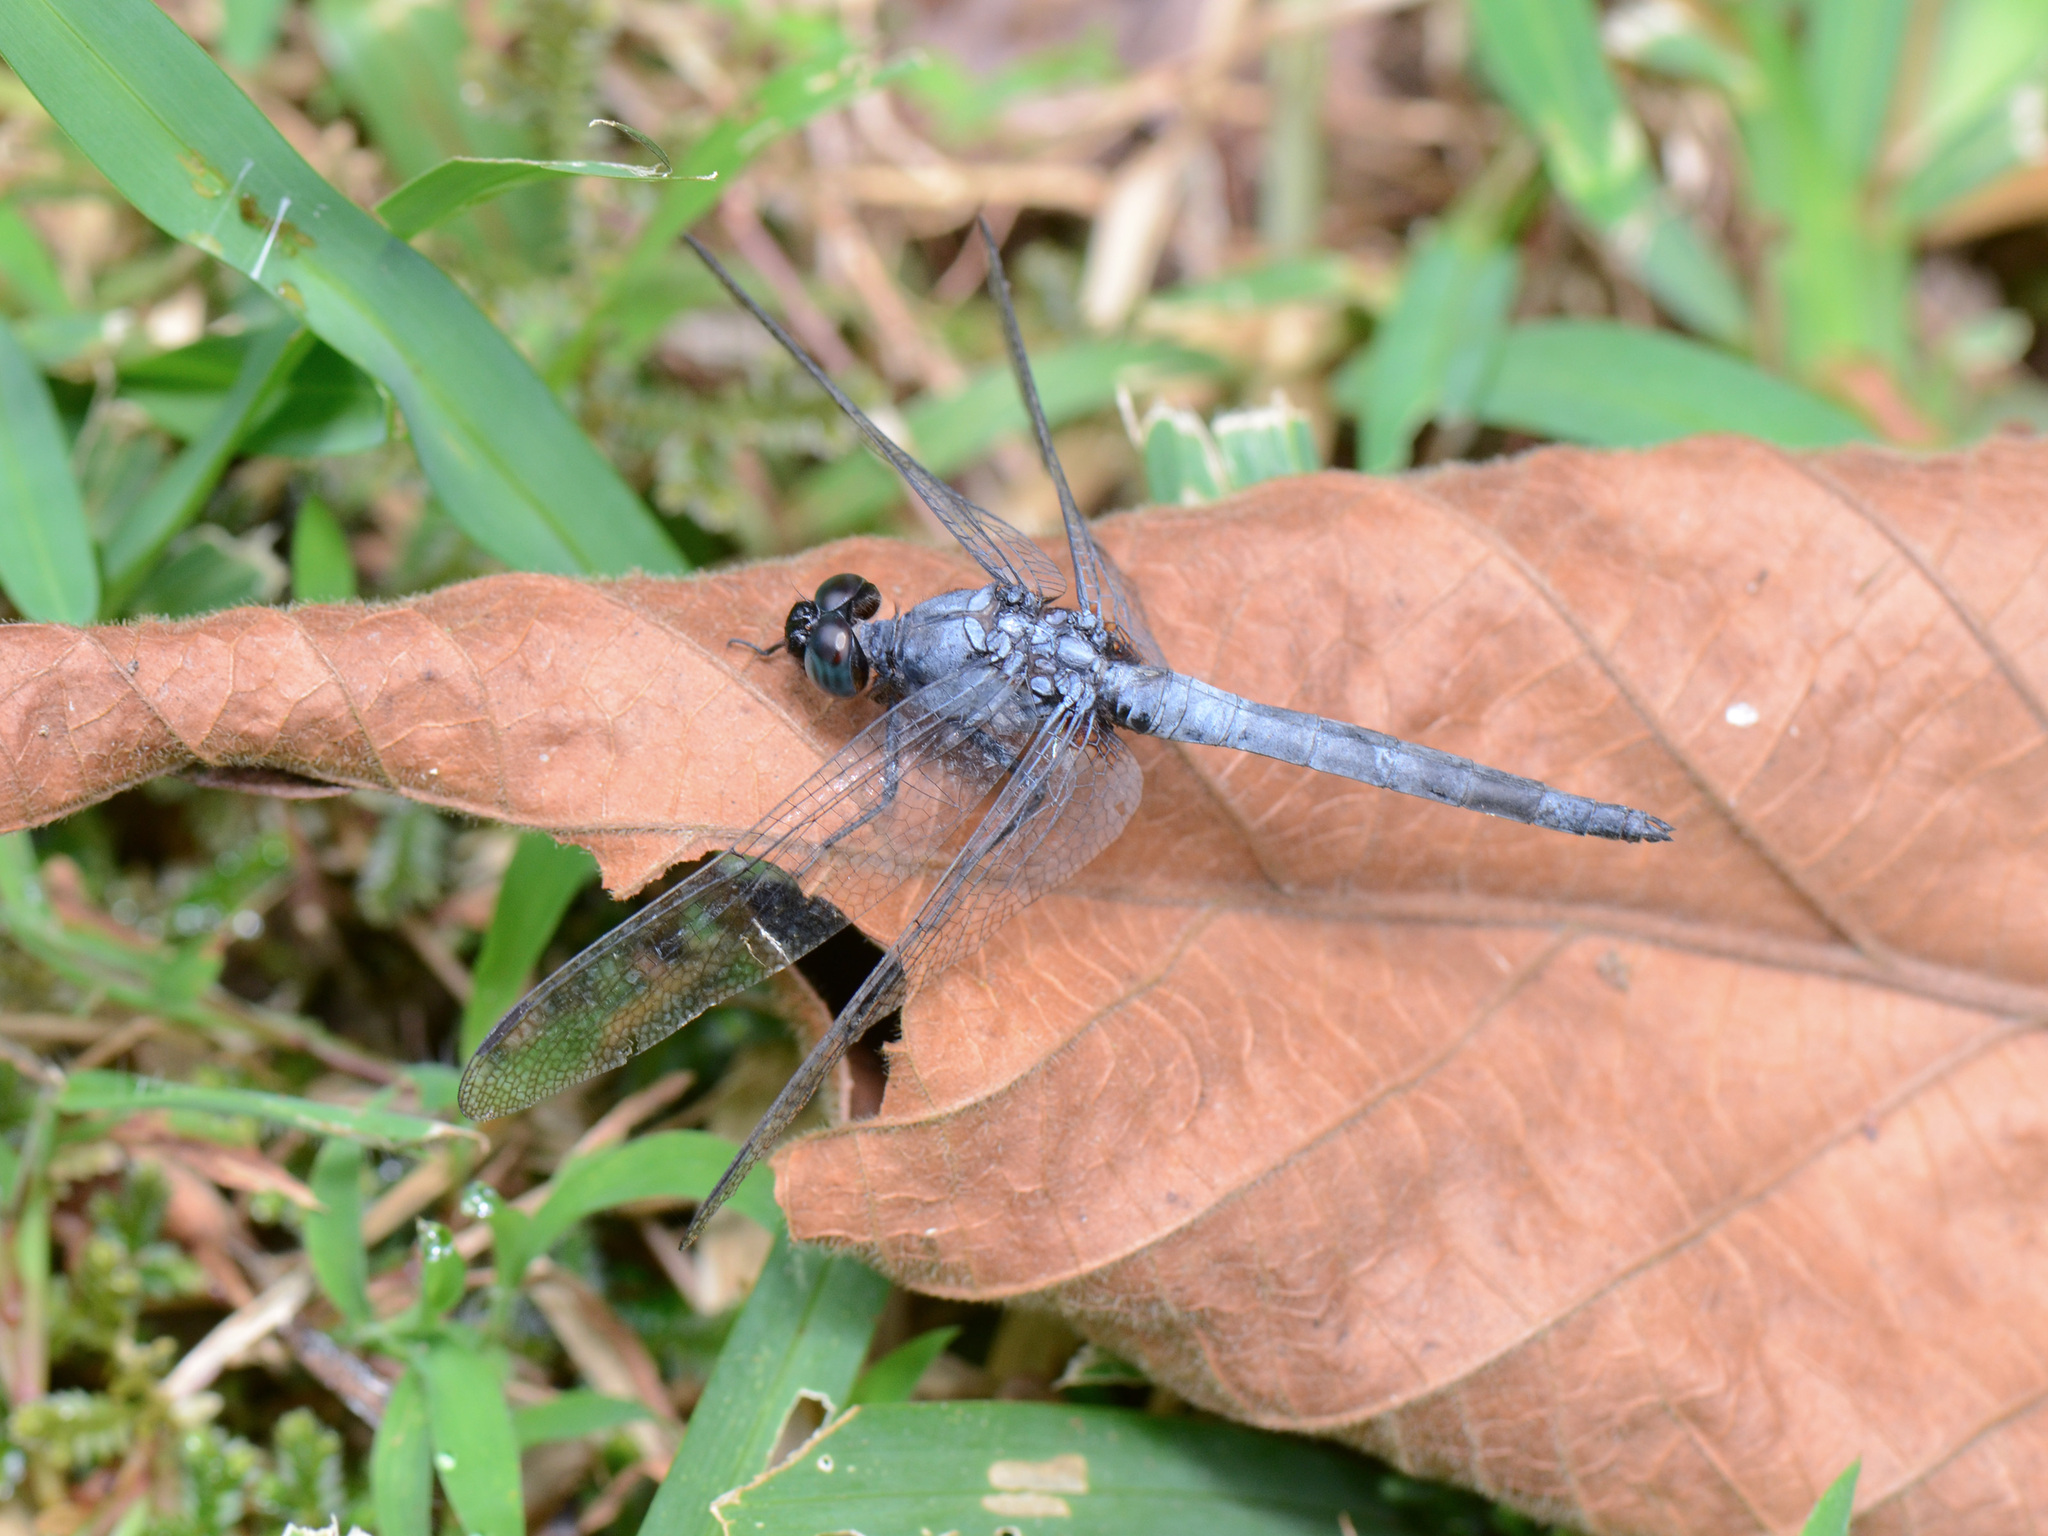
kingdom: Animalia
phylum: Arthropoda
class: Insecta
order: Odonata
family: Libellulidae
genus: Orthetrum
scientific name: Orthetrum glaucum
